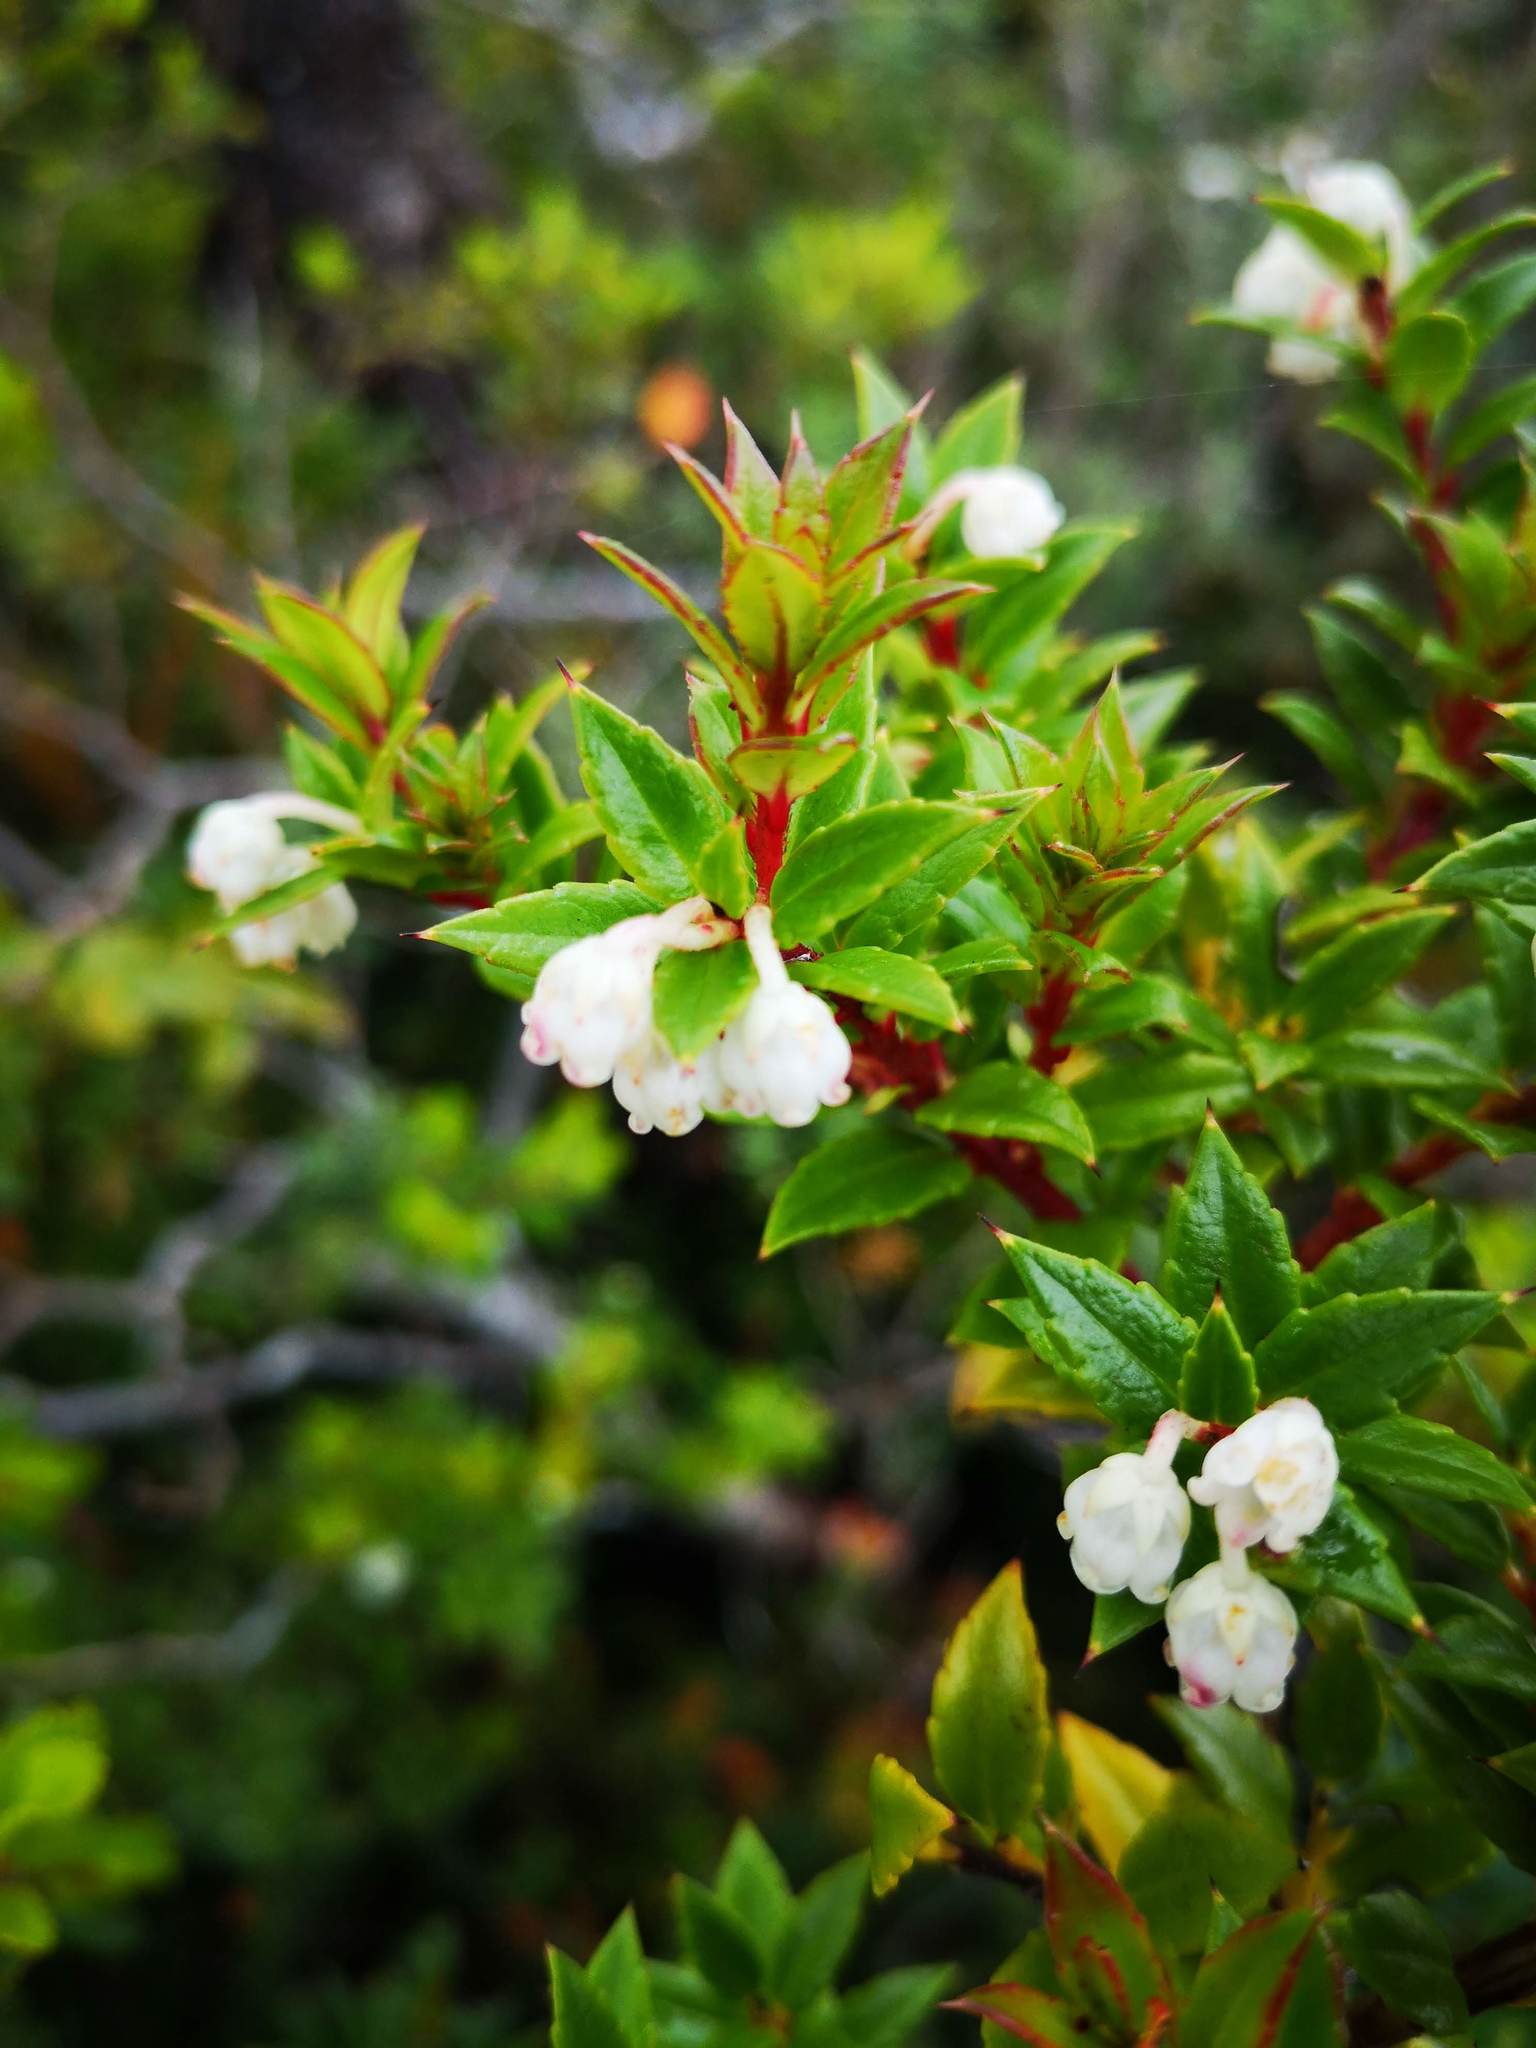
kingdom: Plantae
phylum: Tracheophyta
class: Magnoliopsida
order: Ericales
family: Ericaceae
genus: Gaultheria
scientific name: Gaultheria mucronata
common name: Prickly heath
